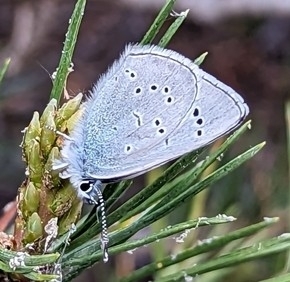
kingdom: Animalia
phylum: Arthropoda
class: Insecta
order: Lepidoptera
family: Lycaenidae
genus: Glaucopsyche
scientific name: Glaucopsyche lygdamus
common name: Silvery blue
